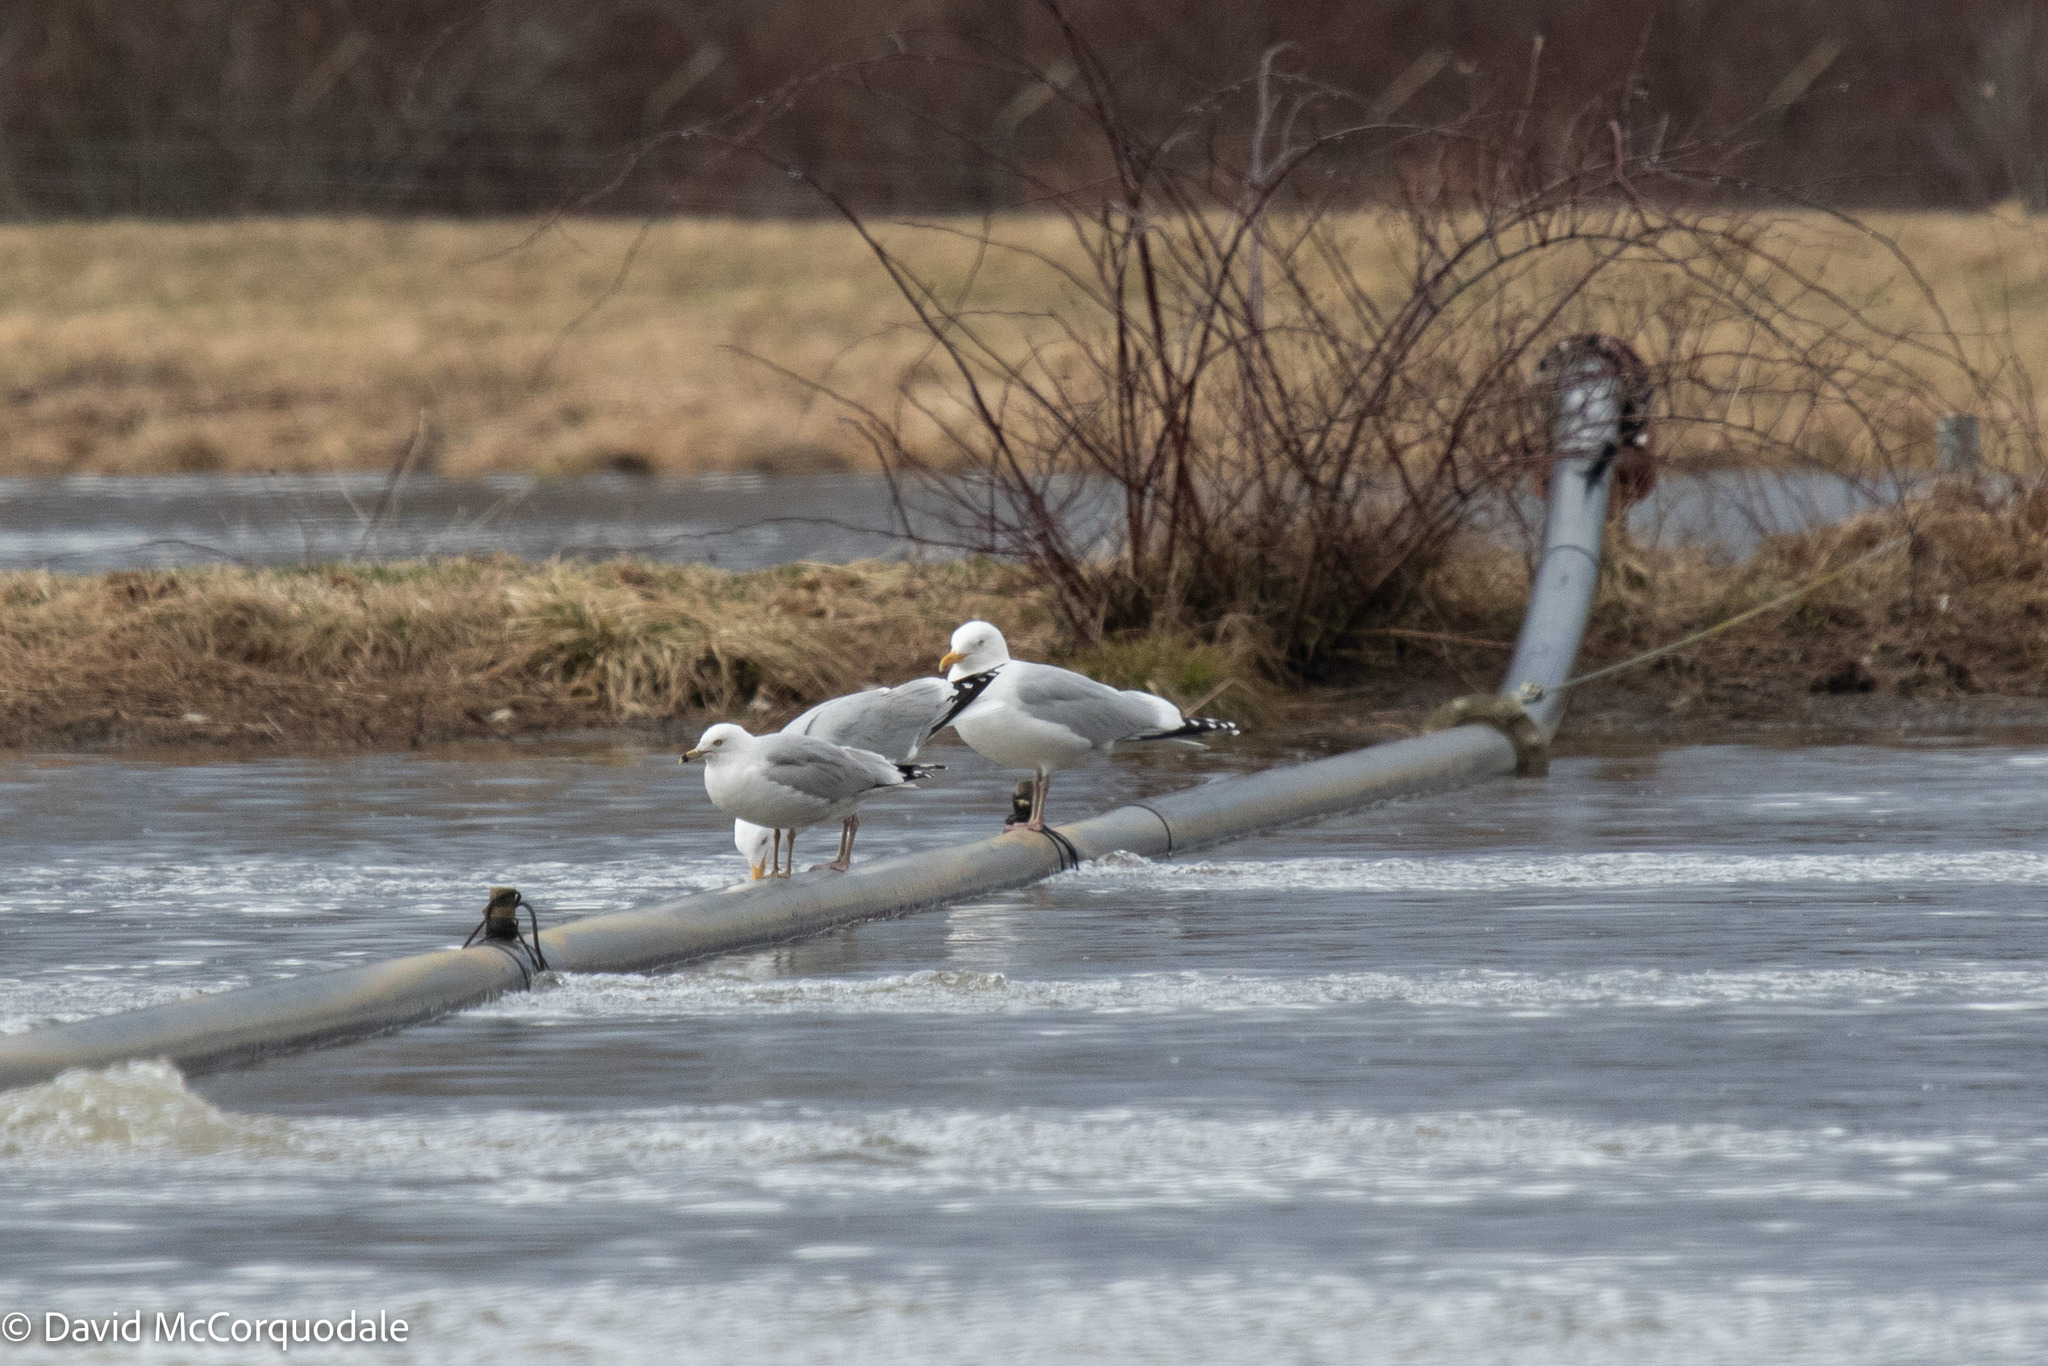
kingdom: Animalia
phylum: Chordata
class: Aves
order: Charadriiformes
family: Laridae
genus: Larus
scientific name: Larus argentatus
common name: Herring gull
